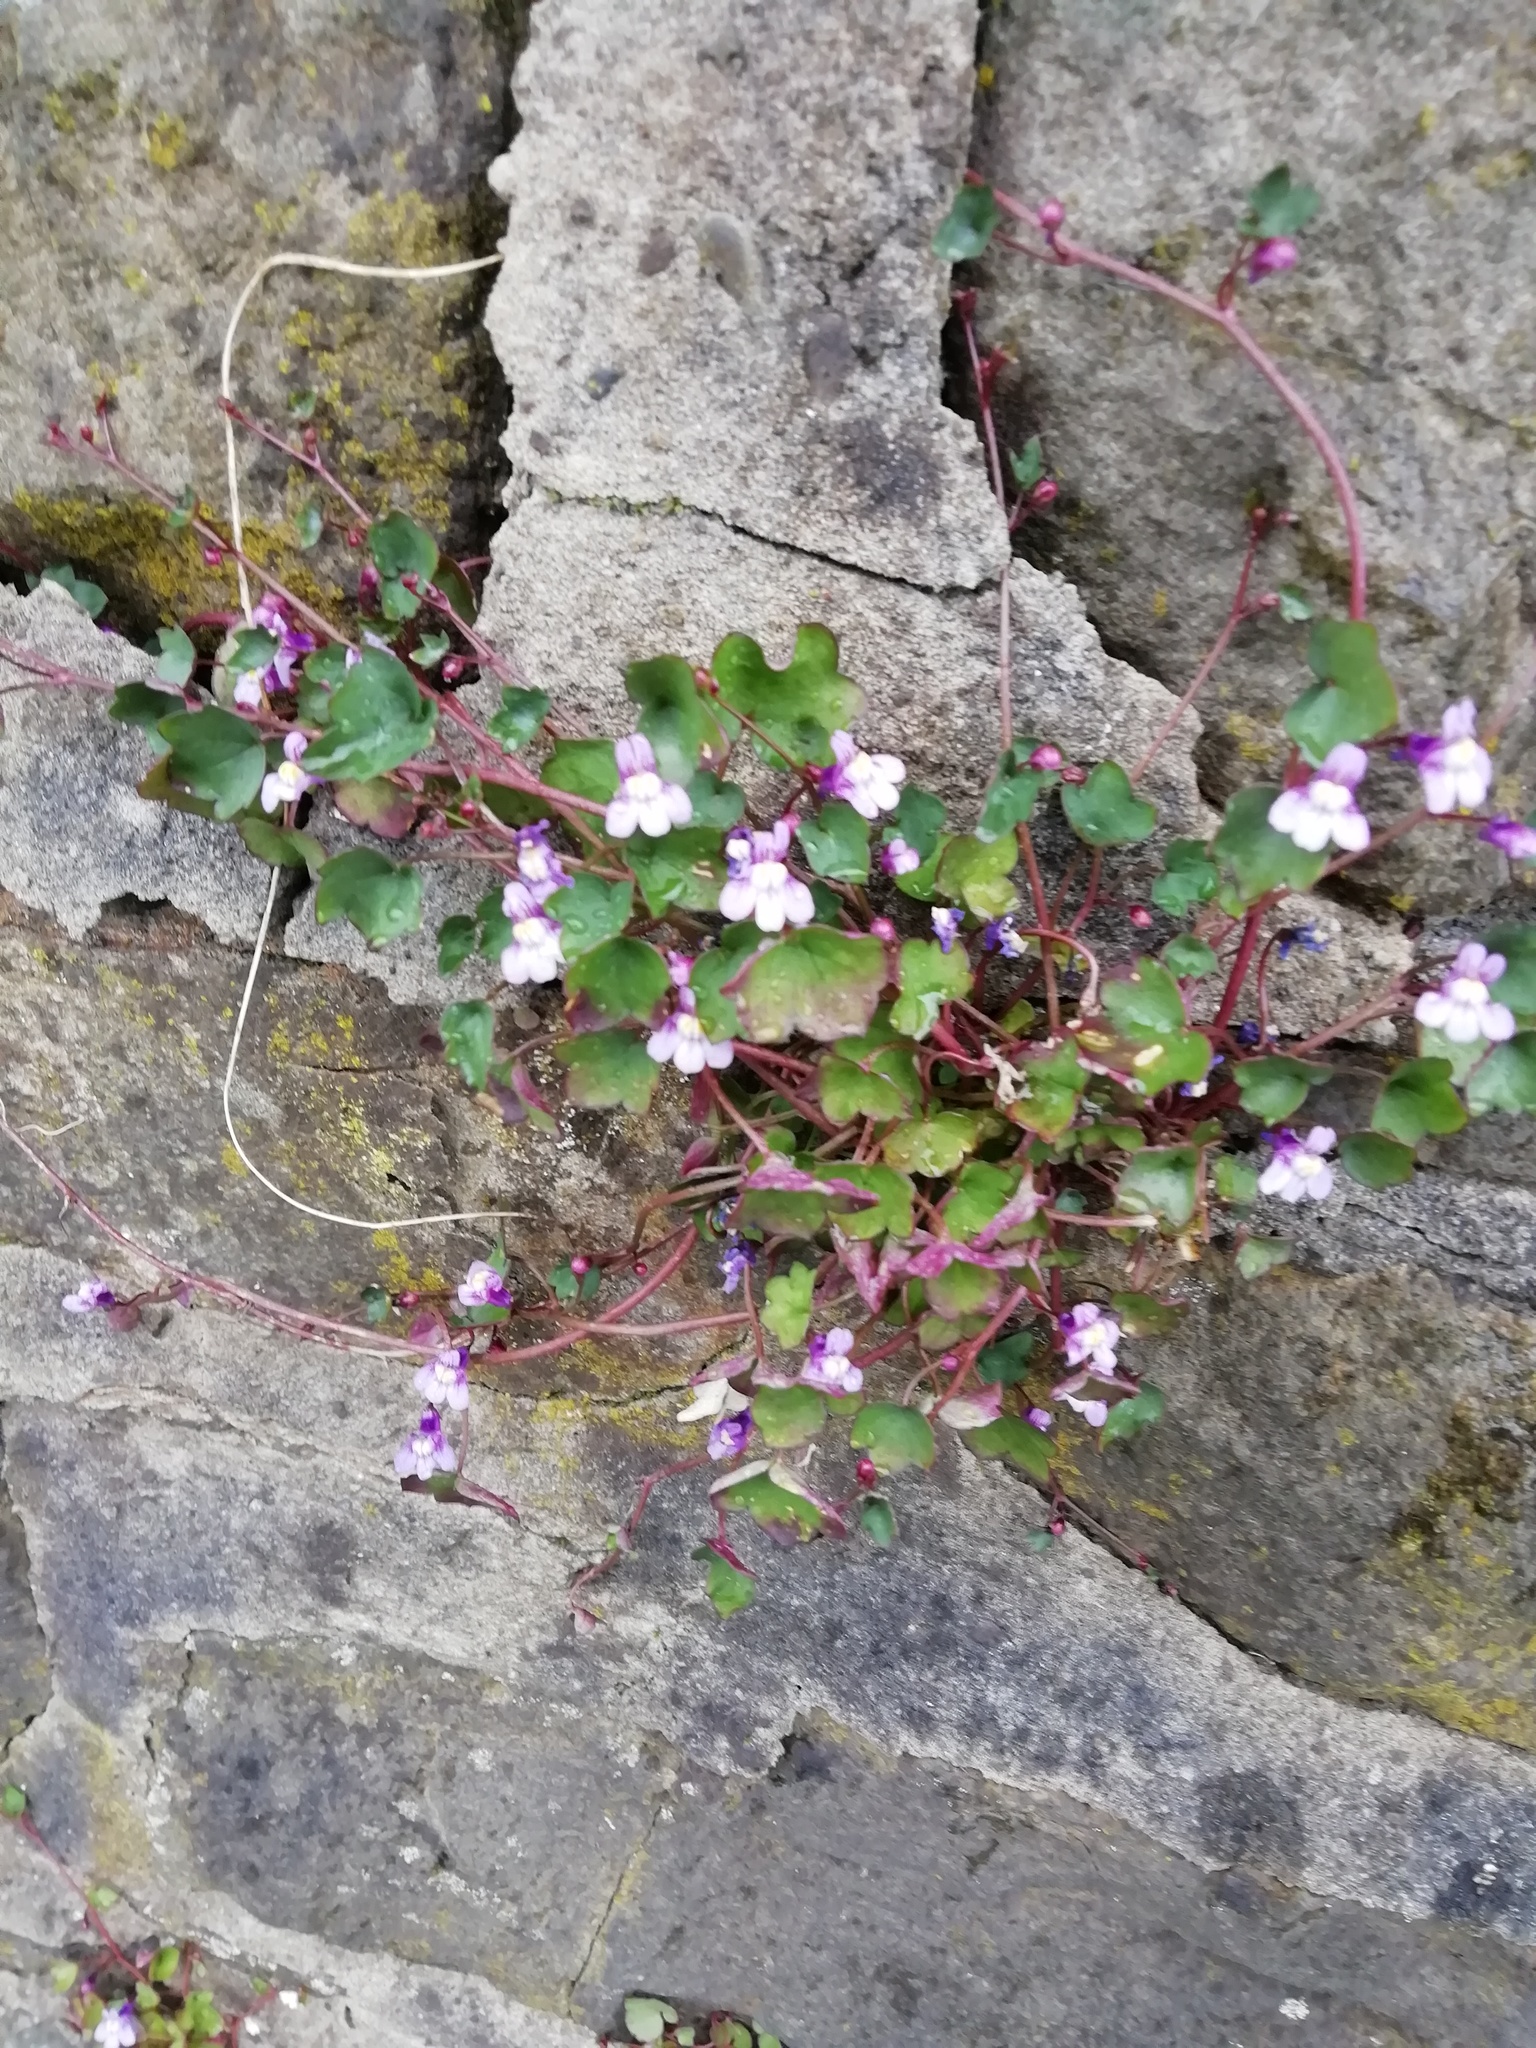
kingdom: Plantae
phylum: Tracheophyta
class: Magnoliopsida
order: Lamiales
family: Plantaginaceae
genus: Cymbalaria
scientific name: Cymbalaria muralis
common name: Ivy-leaved toadflax
